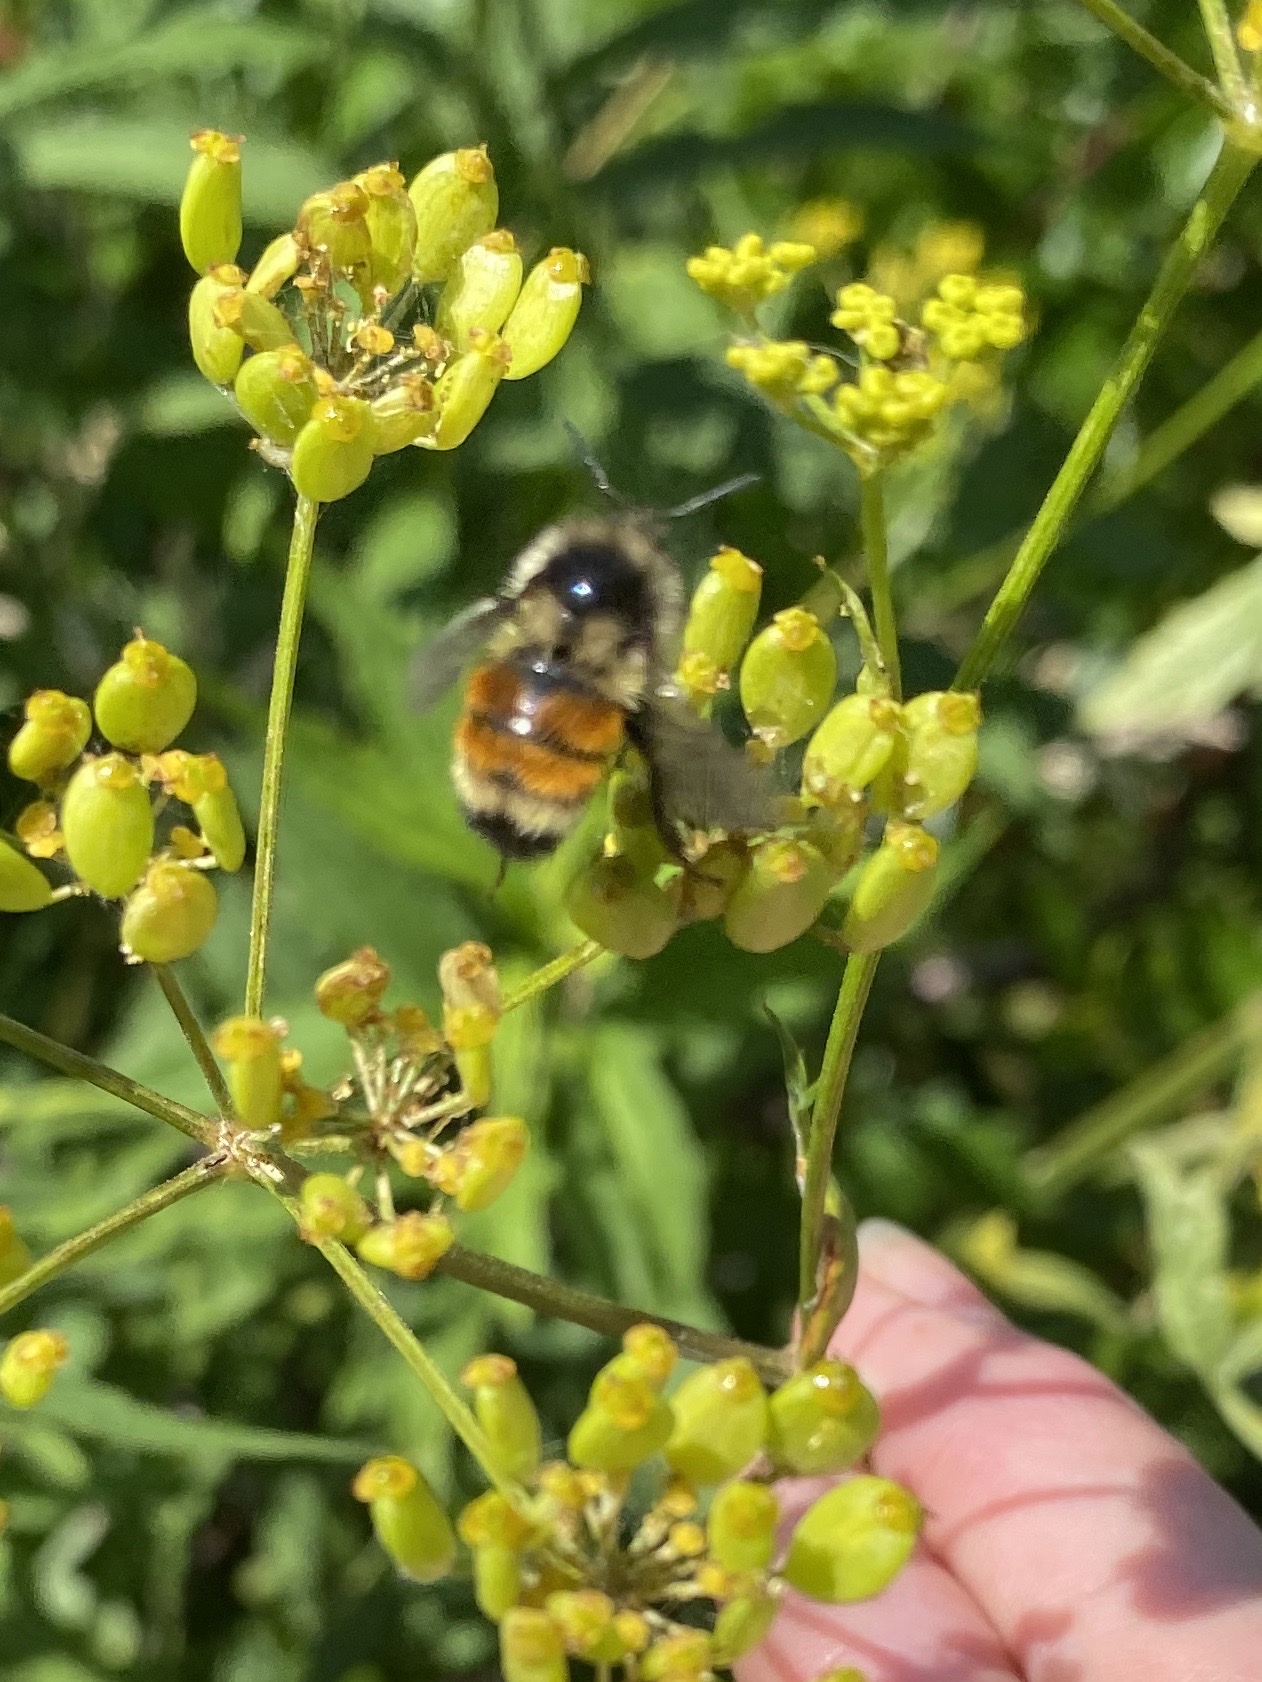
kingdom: Animalia
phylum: Arthropoda
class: Insecta
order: Hymenoptera
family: Apidae
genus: Bombus
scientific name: Bombus ternarius
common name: Tri-colored bumble bee
